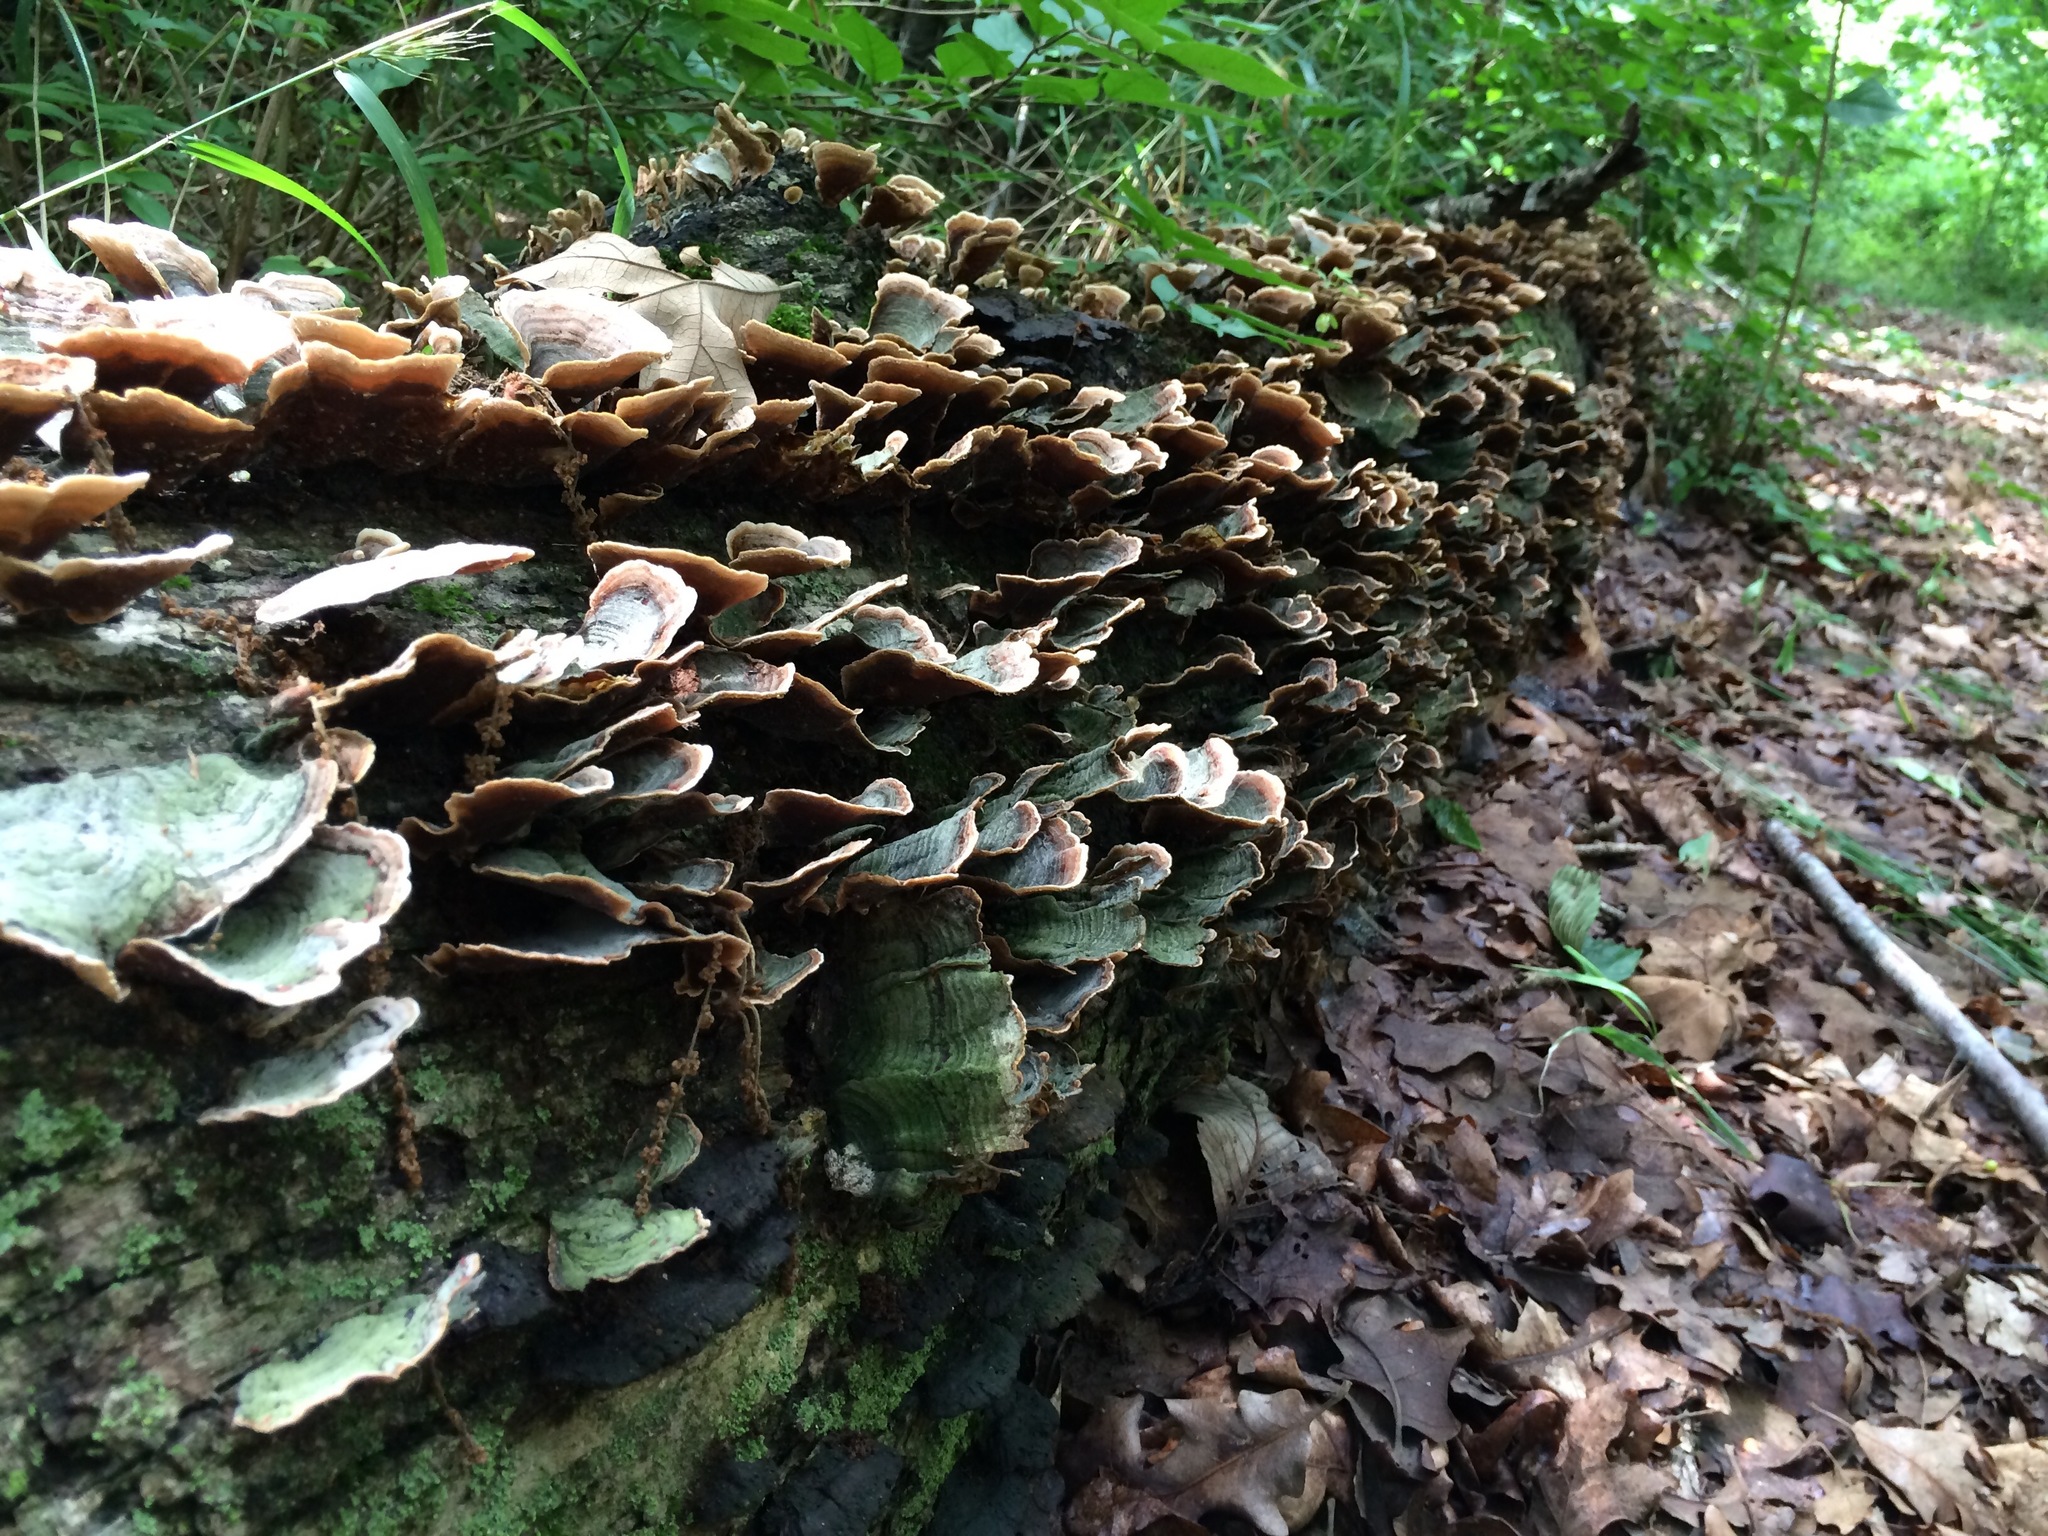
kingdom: Fungi
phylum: Basidiomycota
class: Agaricomycetes
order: Russulales
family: Stereaceae
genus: Stereum
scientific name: Stereum ostrea
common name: False turkeytail
